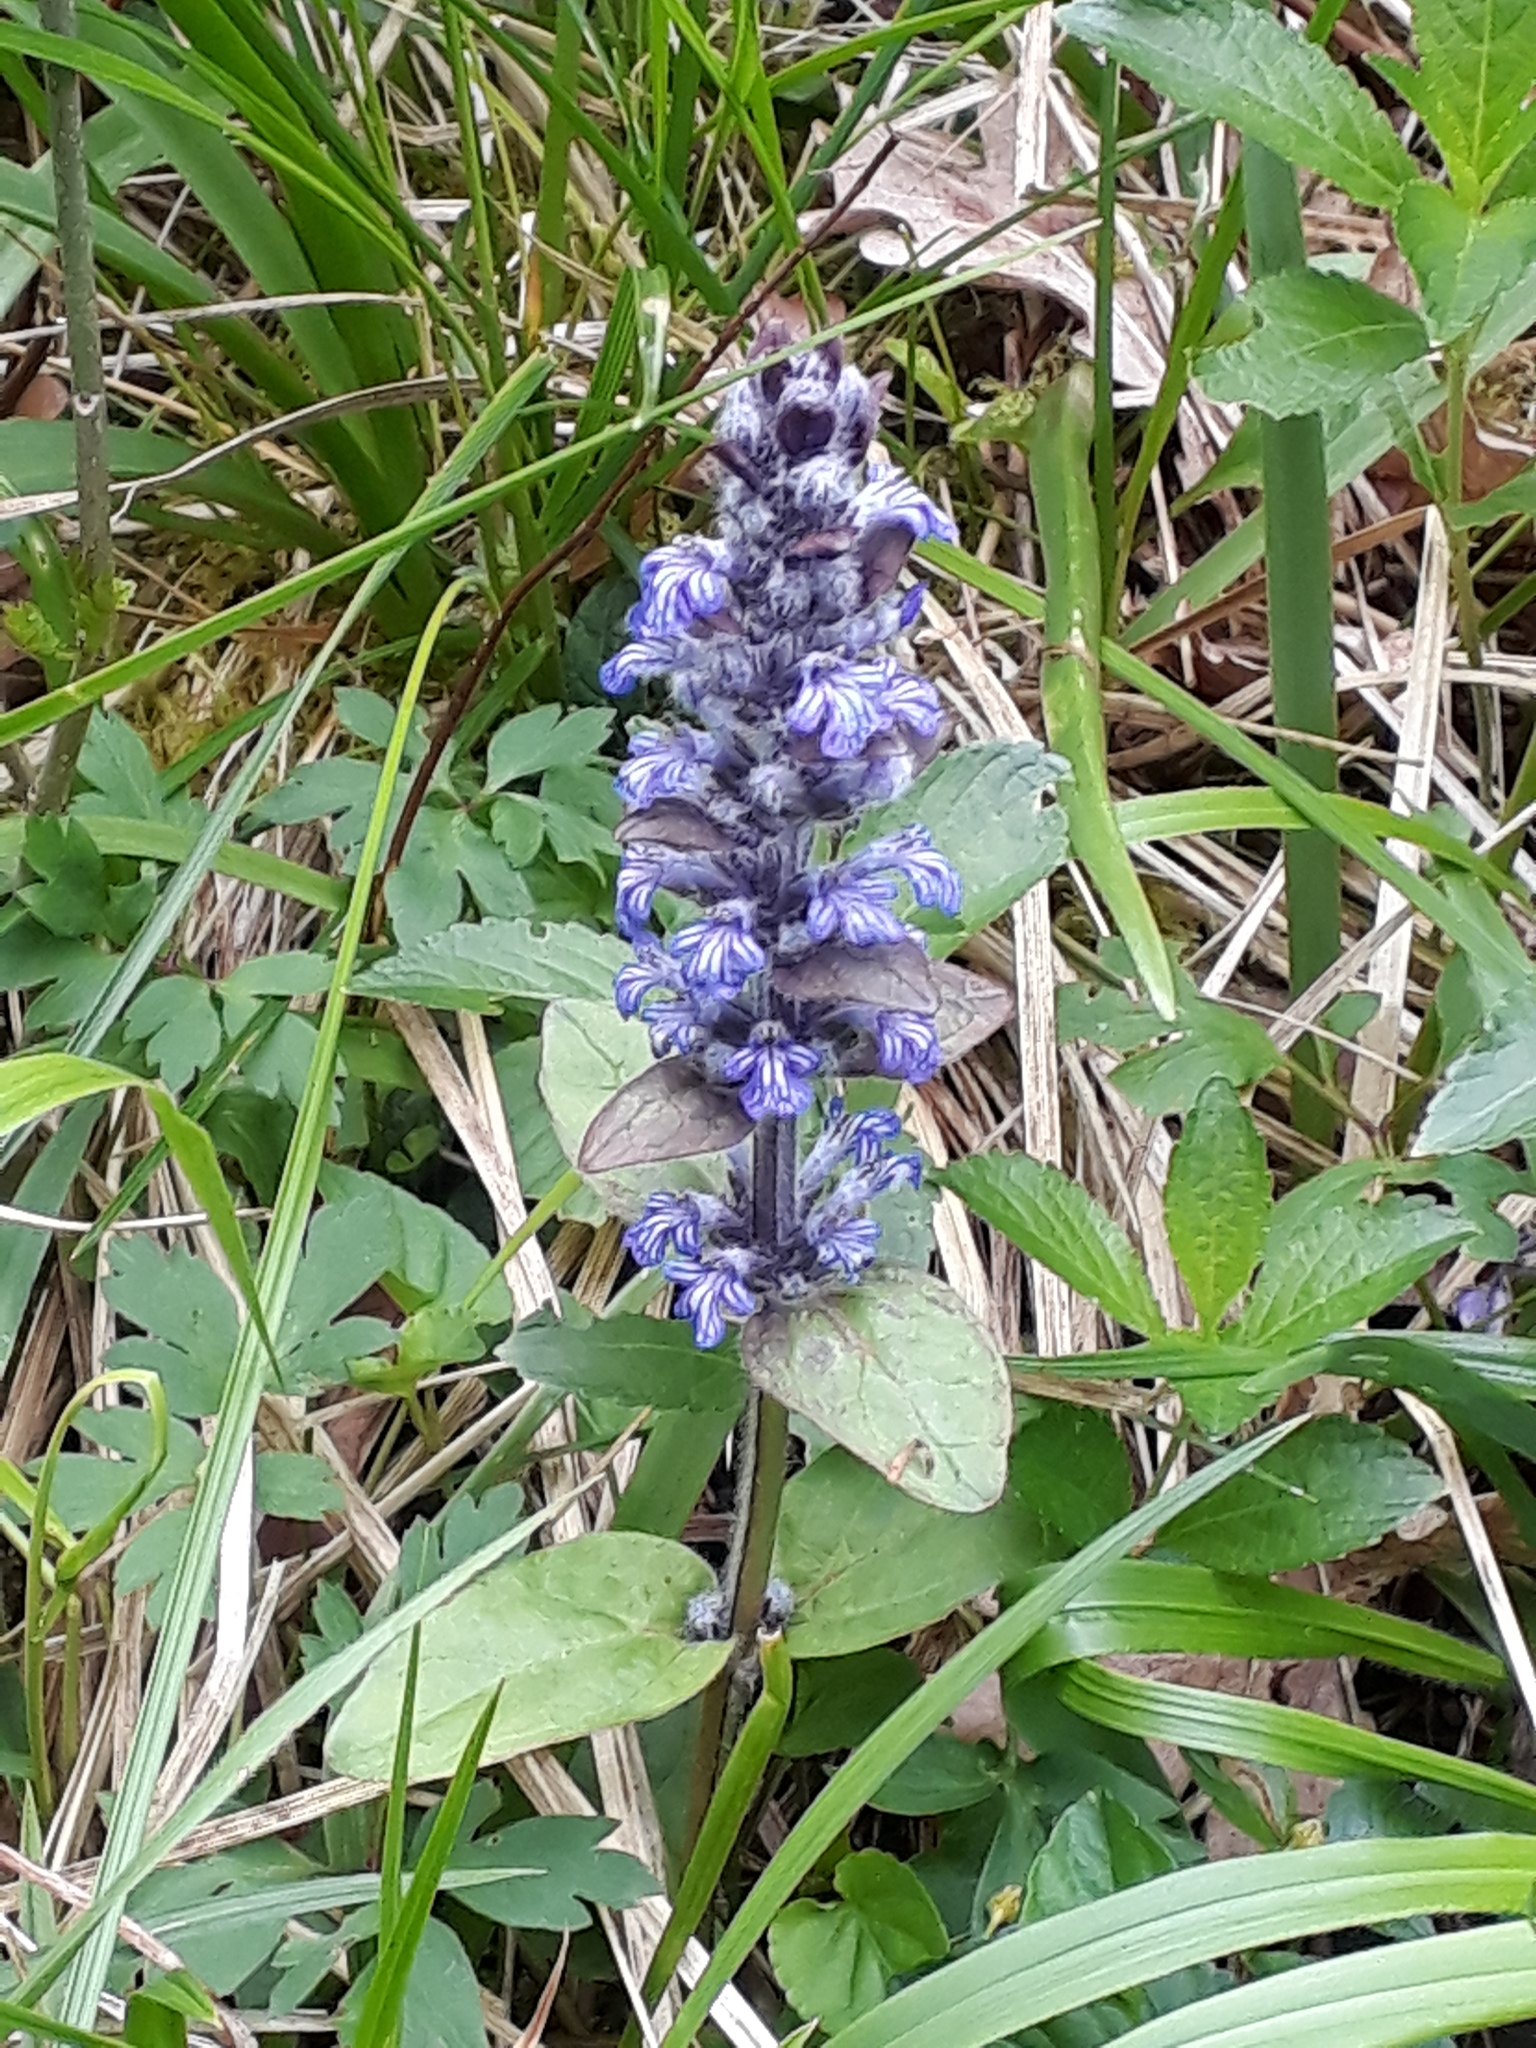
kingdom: Plantae
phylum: Tracheophyta
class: Magnoliopsida
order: Lamiales
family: Lamiaceae
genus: Ajuga
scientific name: Ajuga reptans
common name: Bugle
